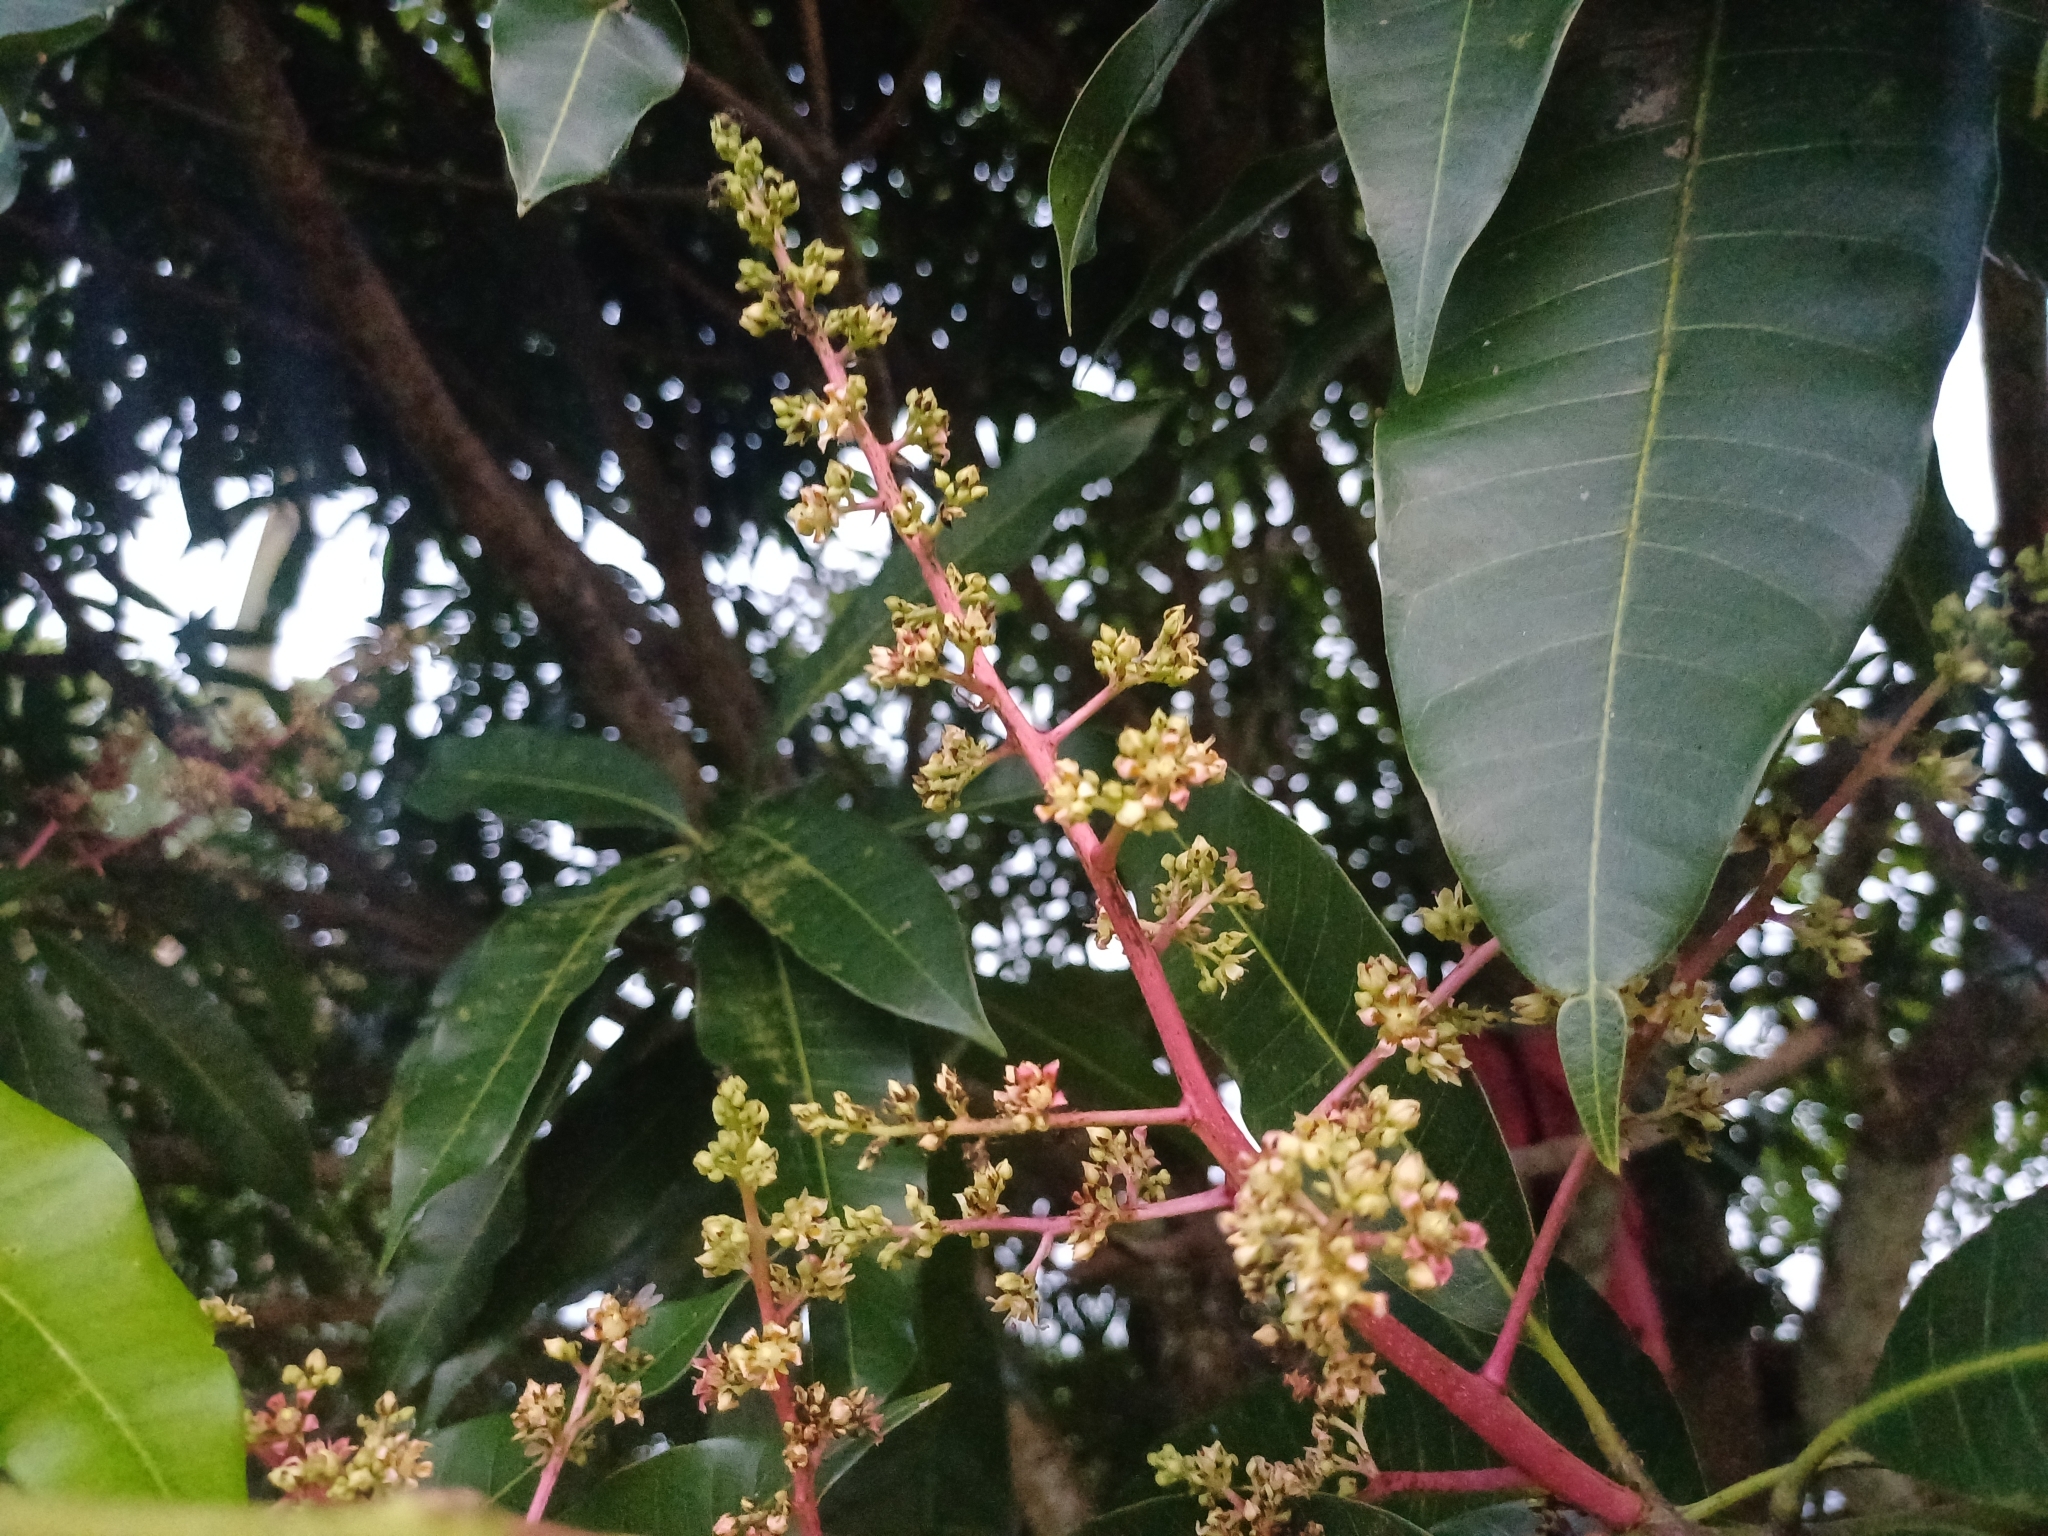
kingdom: Plantae
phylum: Tracheophyta
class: Magnoliopsida
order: Sapindales
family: Anacardiaceae
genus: Mangifera
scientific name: Mangifera indica
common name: Mango
